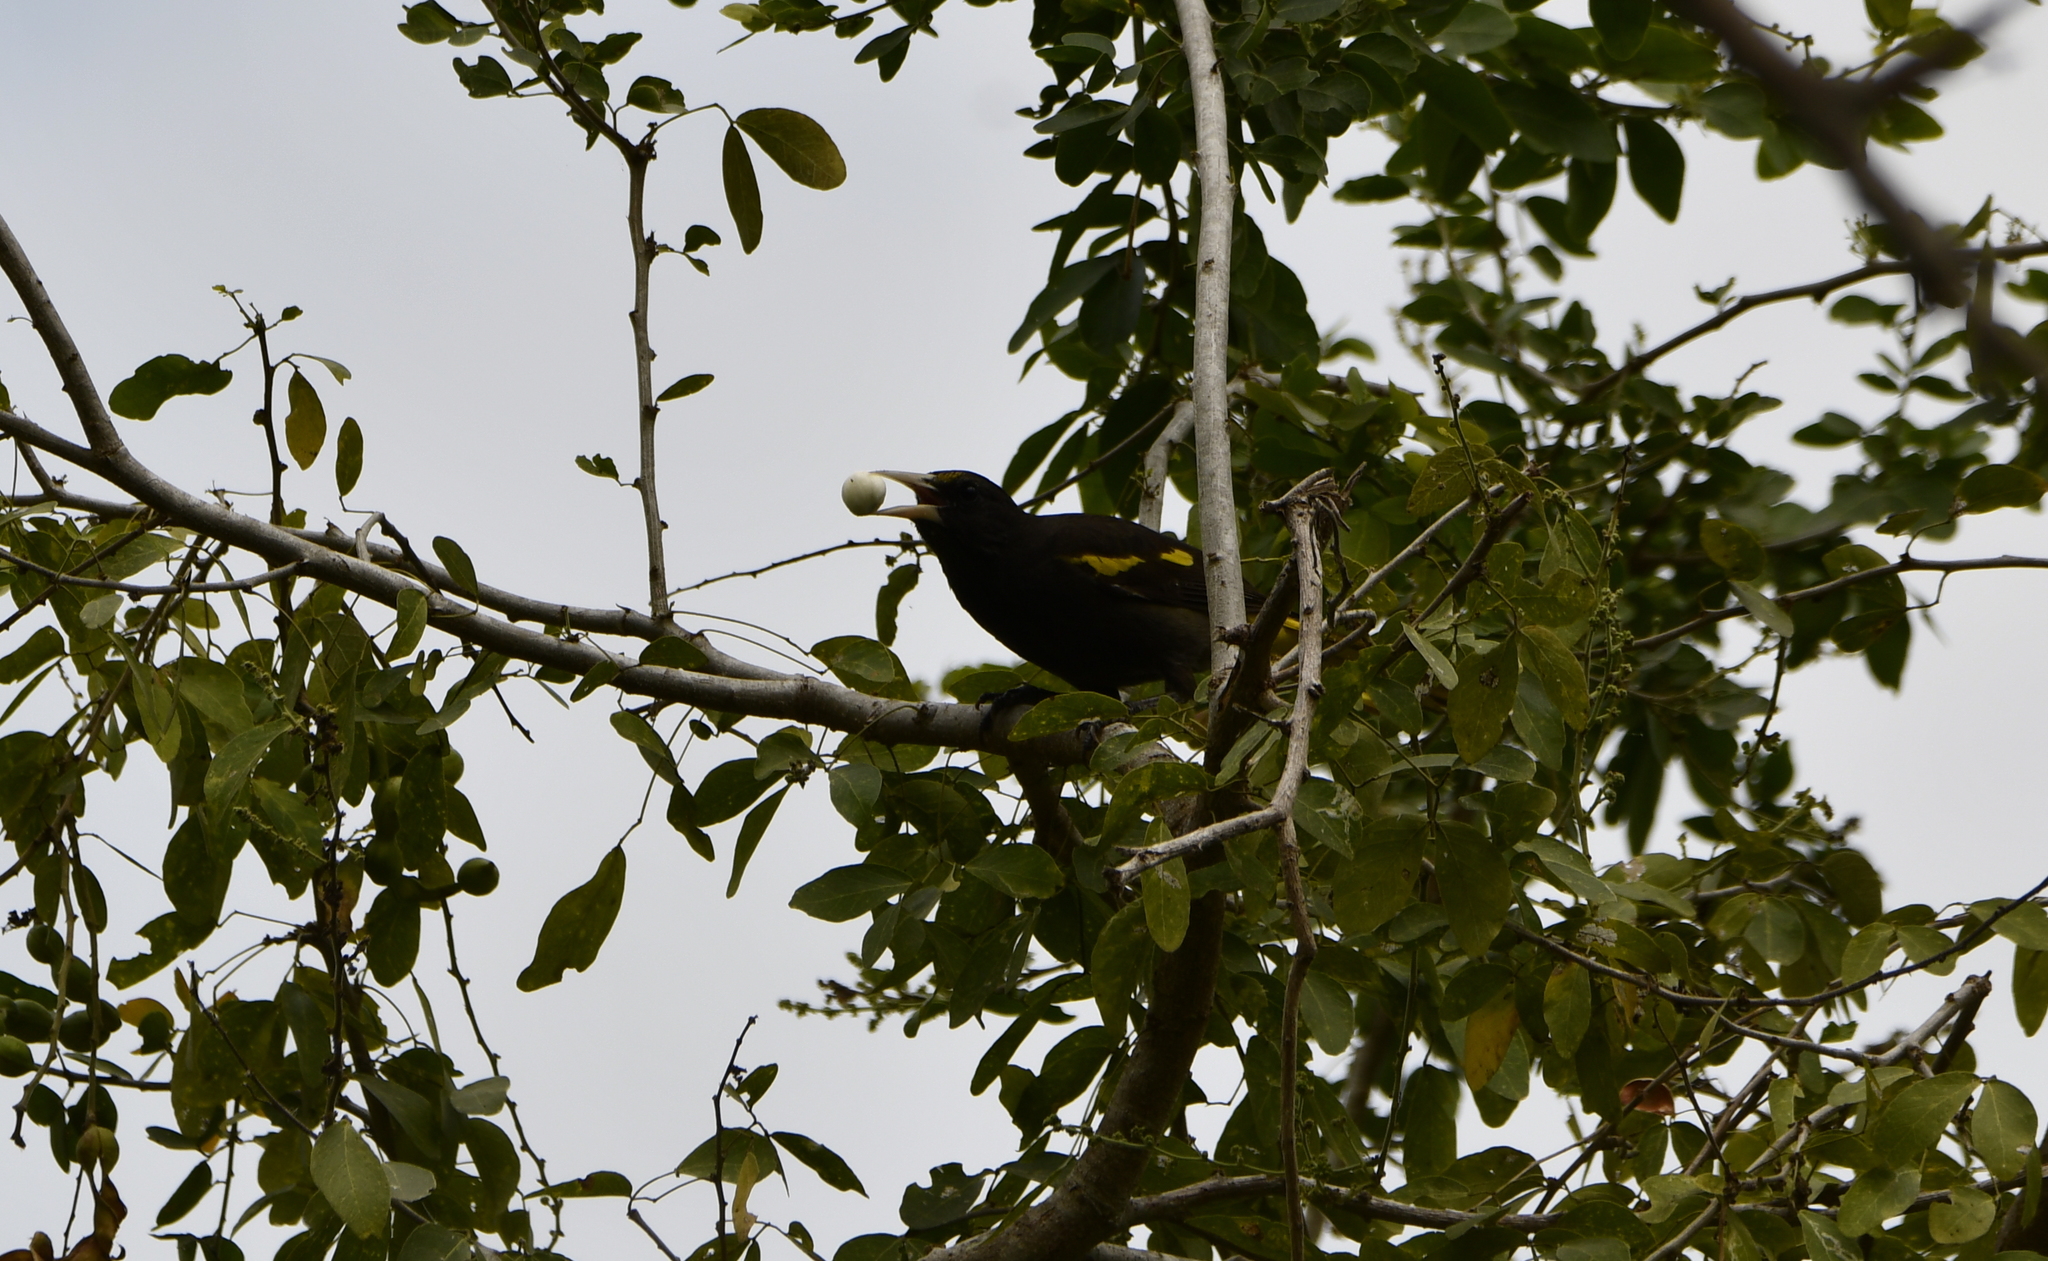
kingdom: Animalia
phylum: Chordata
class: Aves
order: Passeriformes
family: Icteridae
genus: Cacicus
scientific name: Cacicus melanicterus
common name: Yellow-winged cacique
